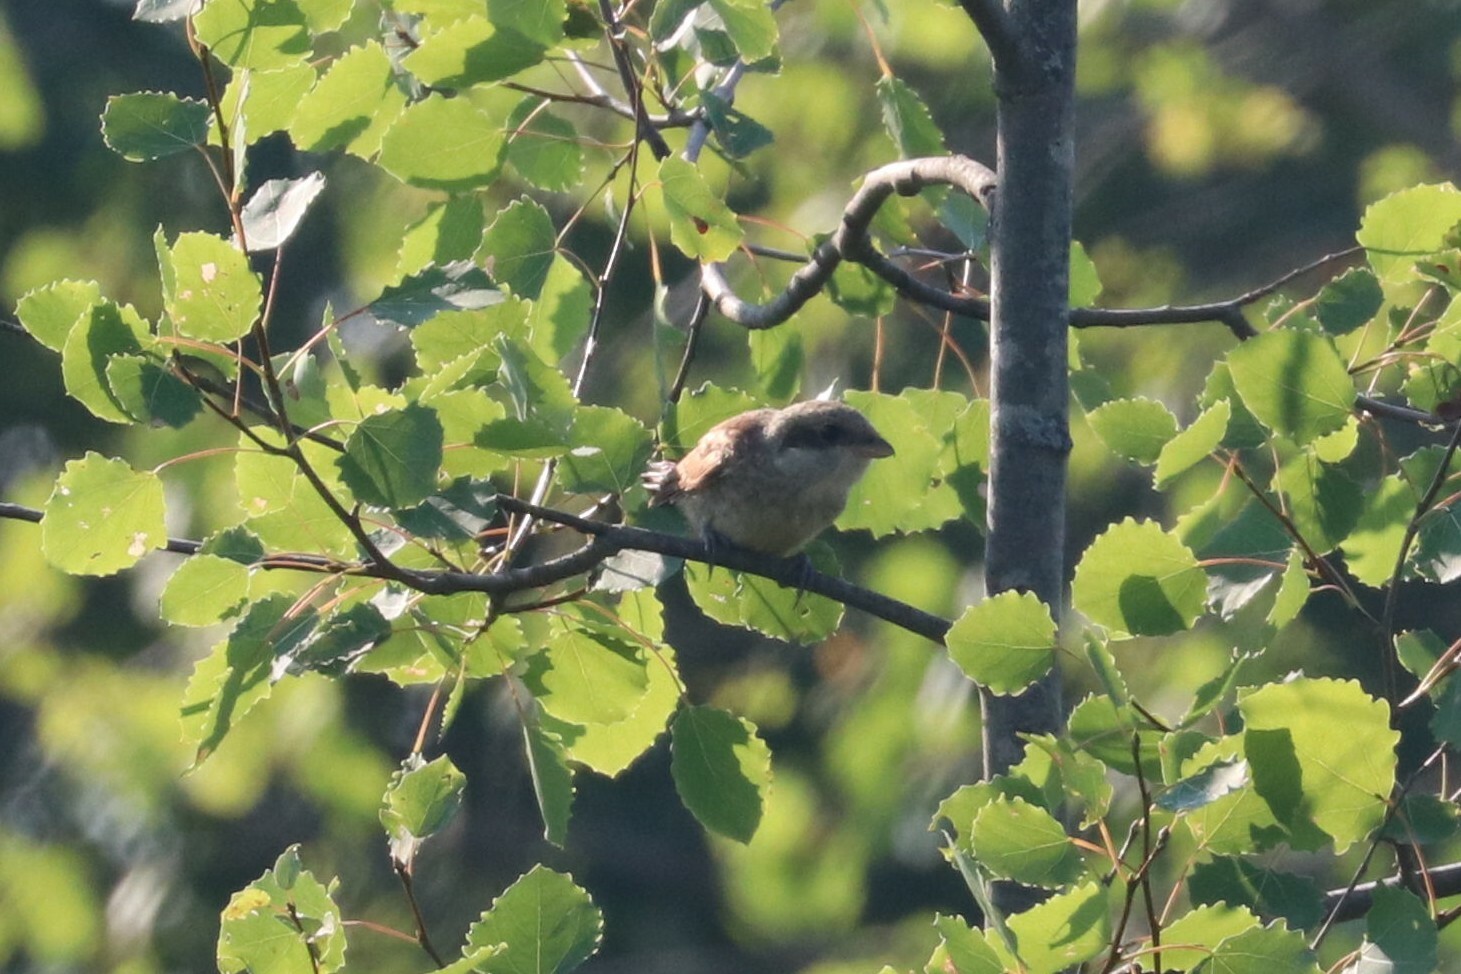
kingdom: Animalia
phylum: Chordata
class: Aves
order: Passeriformes
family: Laniidae
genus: Lanius
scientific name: Lanius collurio
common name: Red-backed shrike
